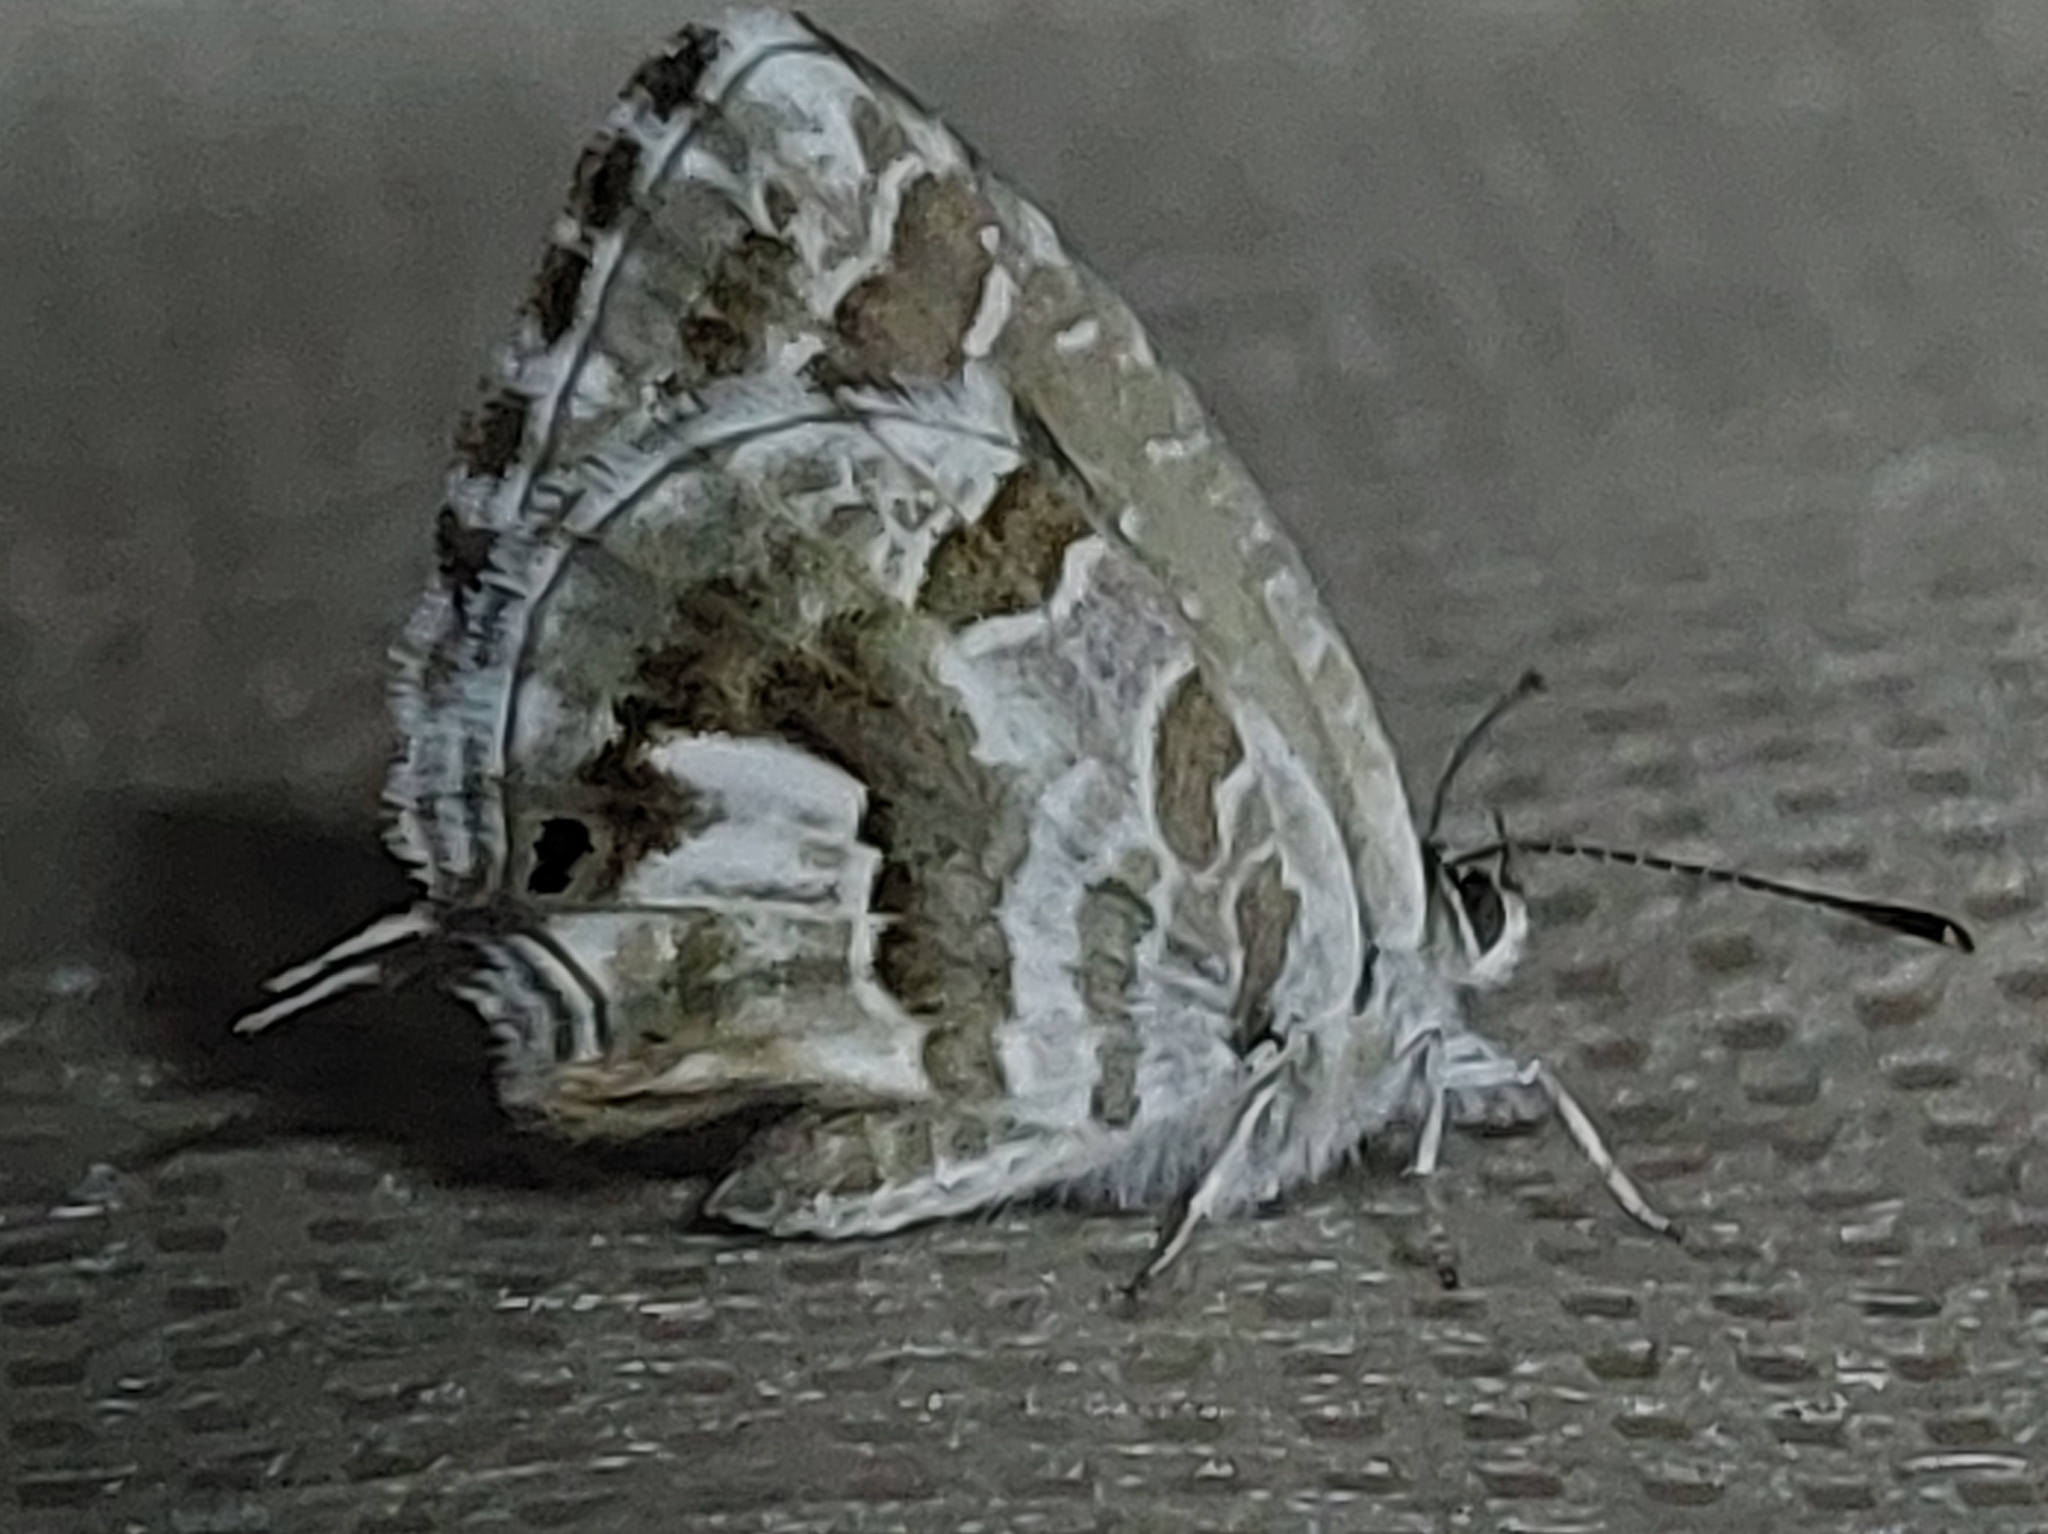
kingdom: Animalia
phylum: Arthropoda
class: Insecta
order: Lepidoptera
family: Lycaenidae
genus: Cacyreus
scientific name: Cacyreus marshalli
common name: Geranium bronze
